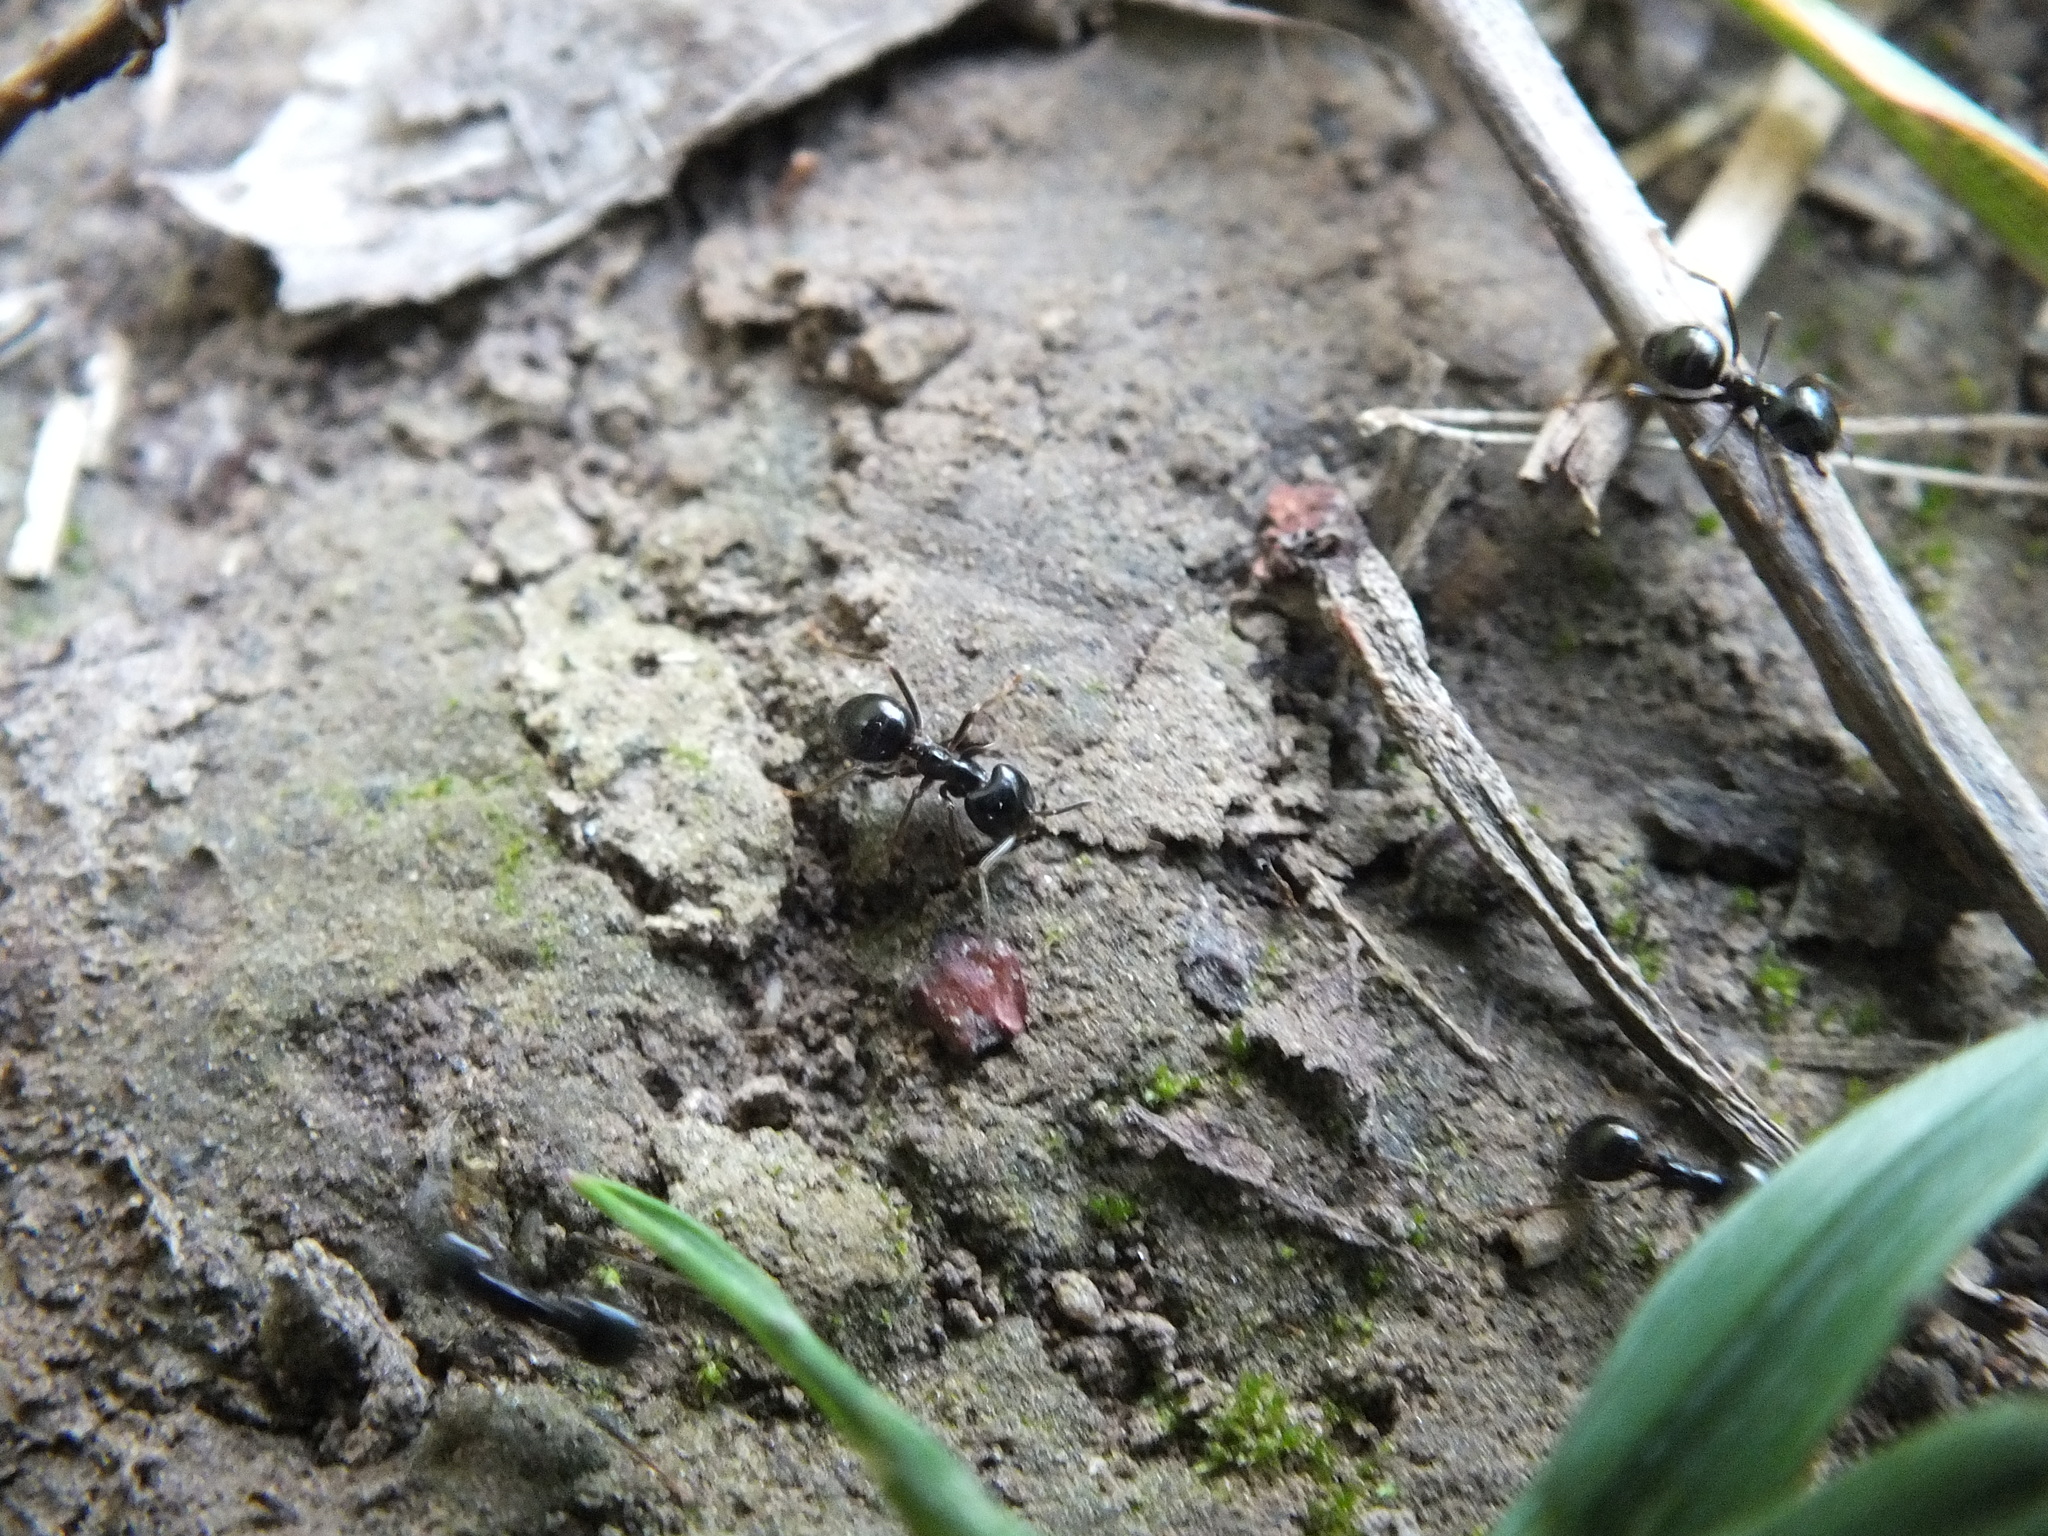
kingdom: Animalia
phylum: Arthropoda
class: Insecta
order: Hymenoptera
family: Formicidae
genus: Lasius
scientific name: Lasius fuliginosus
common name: Jet ant
